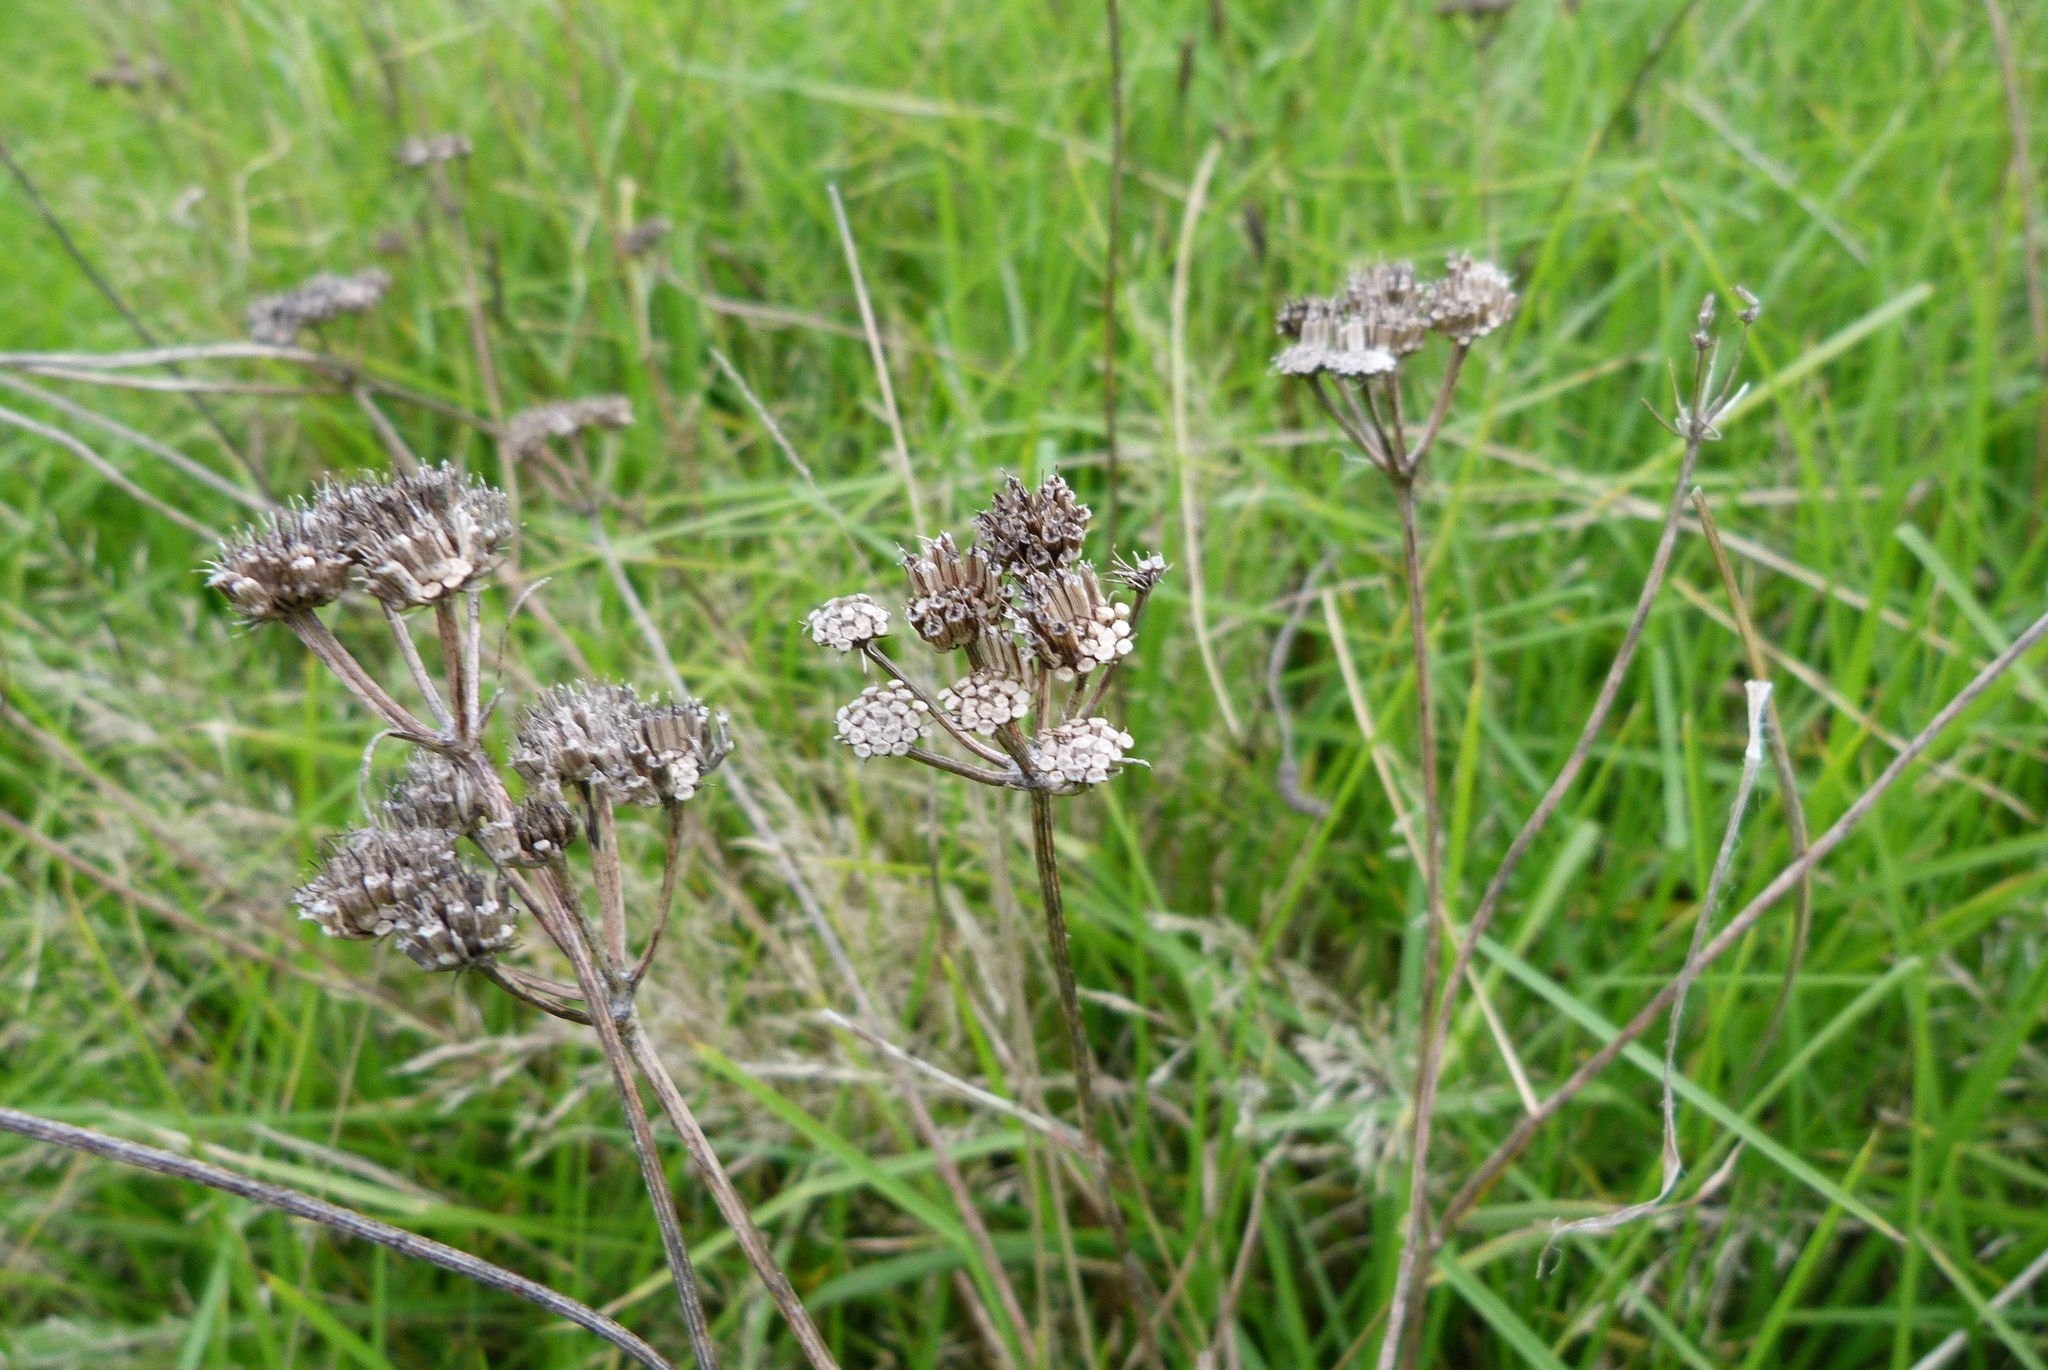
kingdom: Plantae
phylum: Tracheophyta
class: Magnoliopsida
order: Apiales
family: Apiaceae
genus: Daucus
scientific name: Daucus carota
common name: Wild carrot
